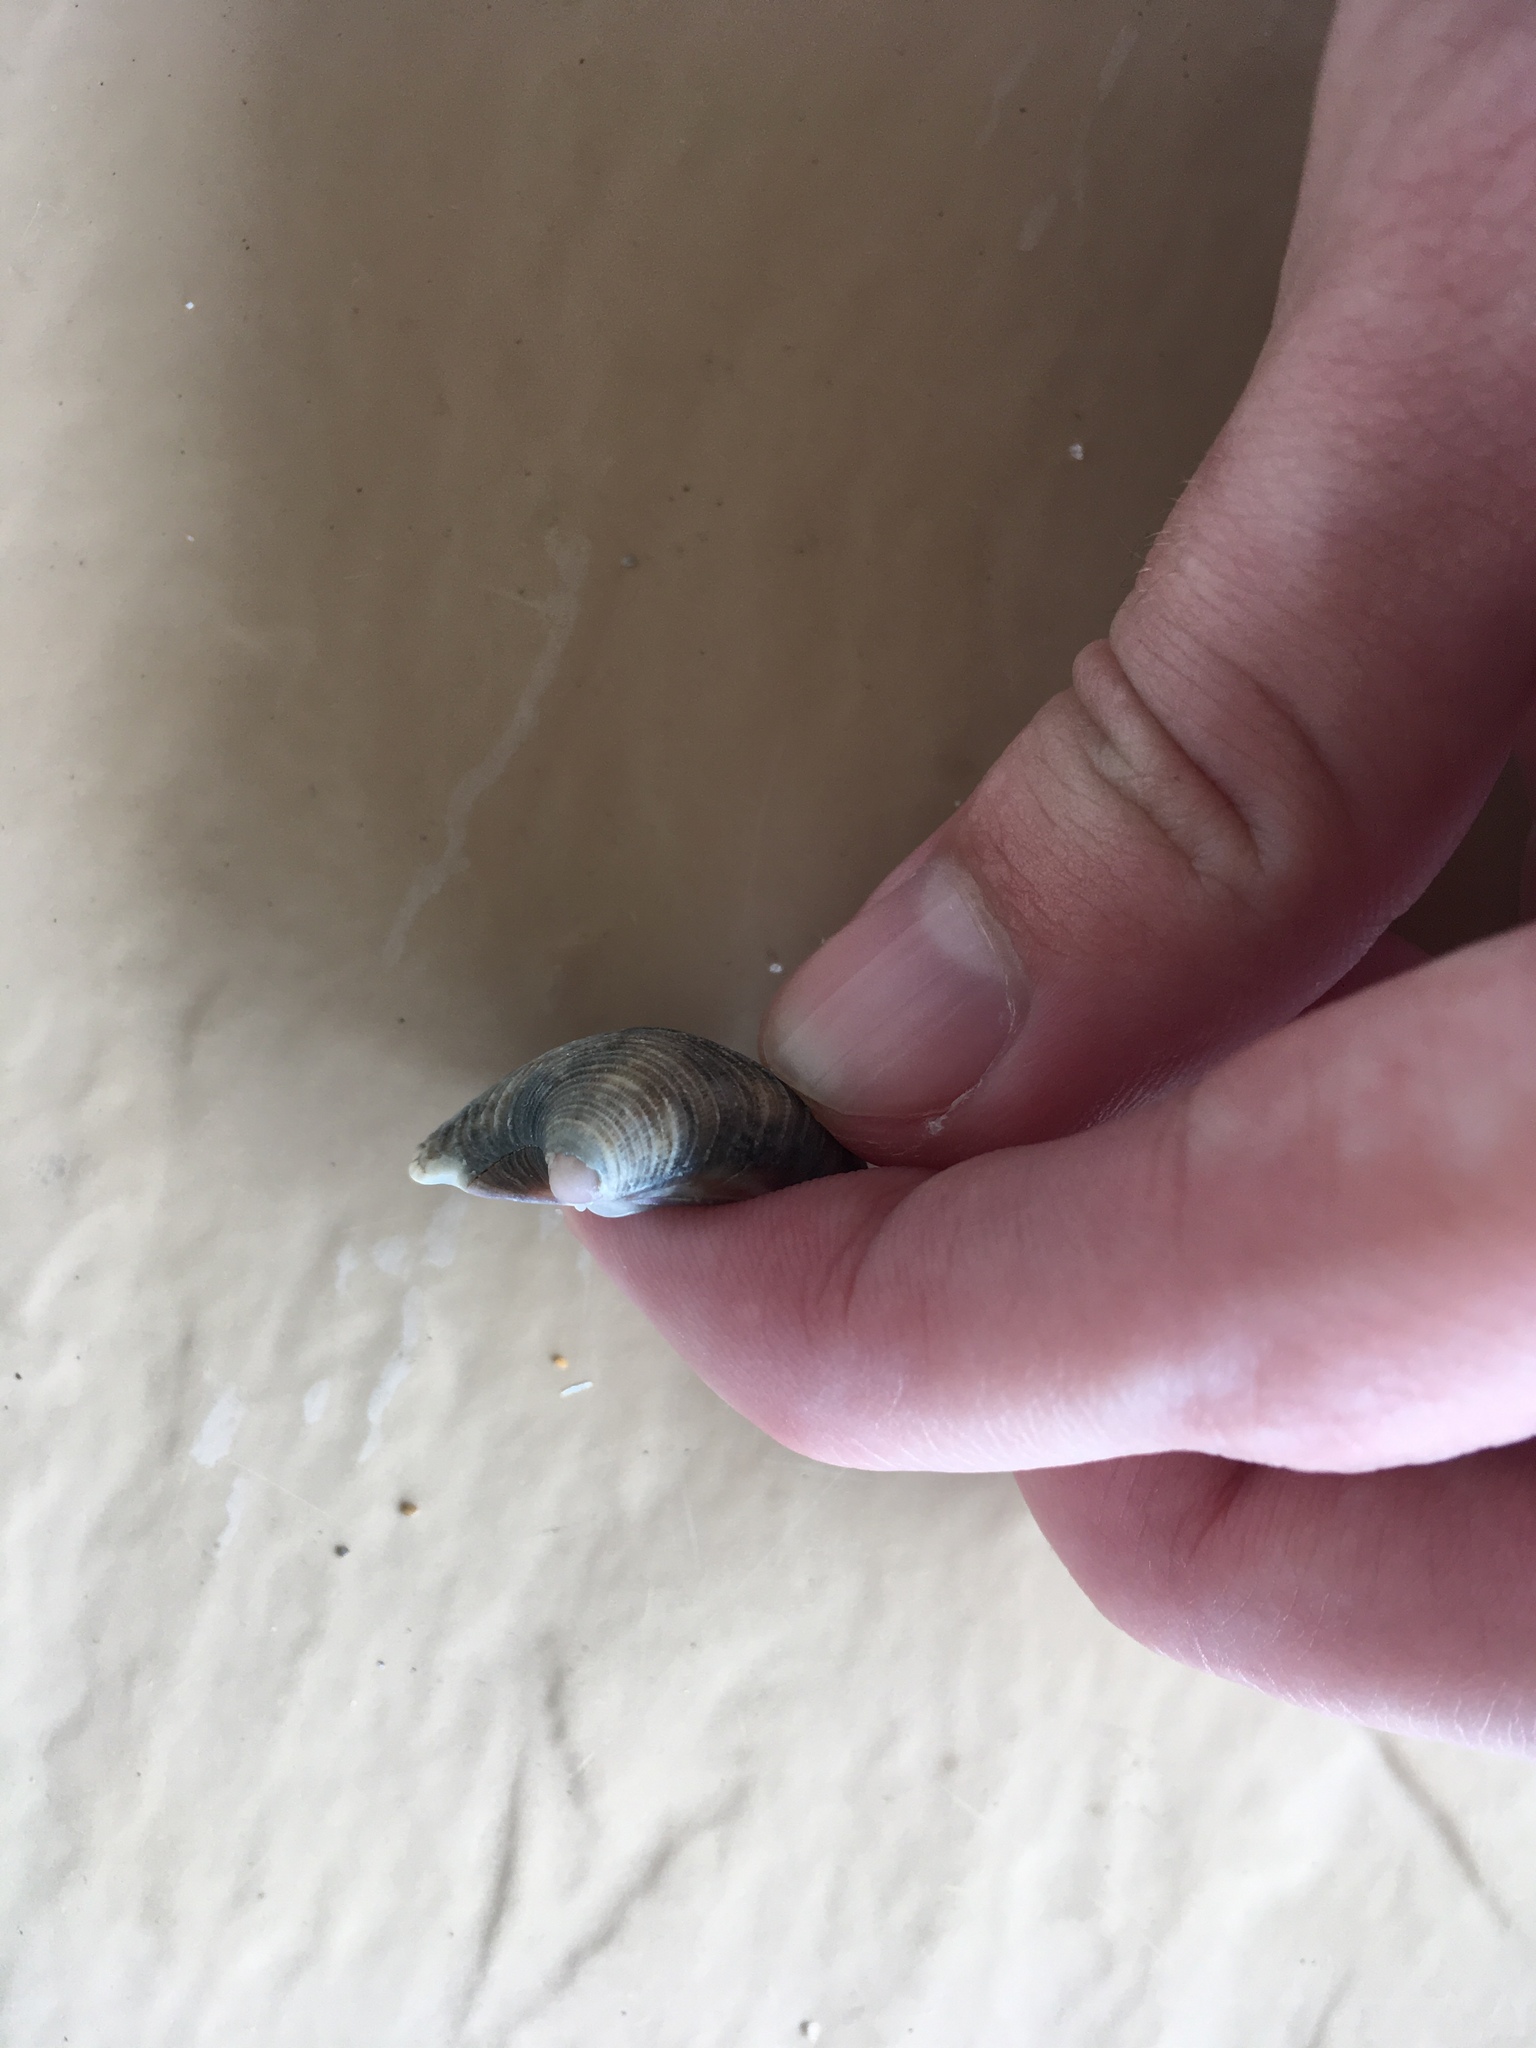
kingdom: Animalia
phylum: Mollusca
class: Bivalvia
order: Venerida
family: Veneridae
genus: Chionopsis
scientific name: Chionopsis intapurpurea
